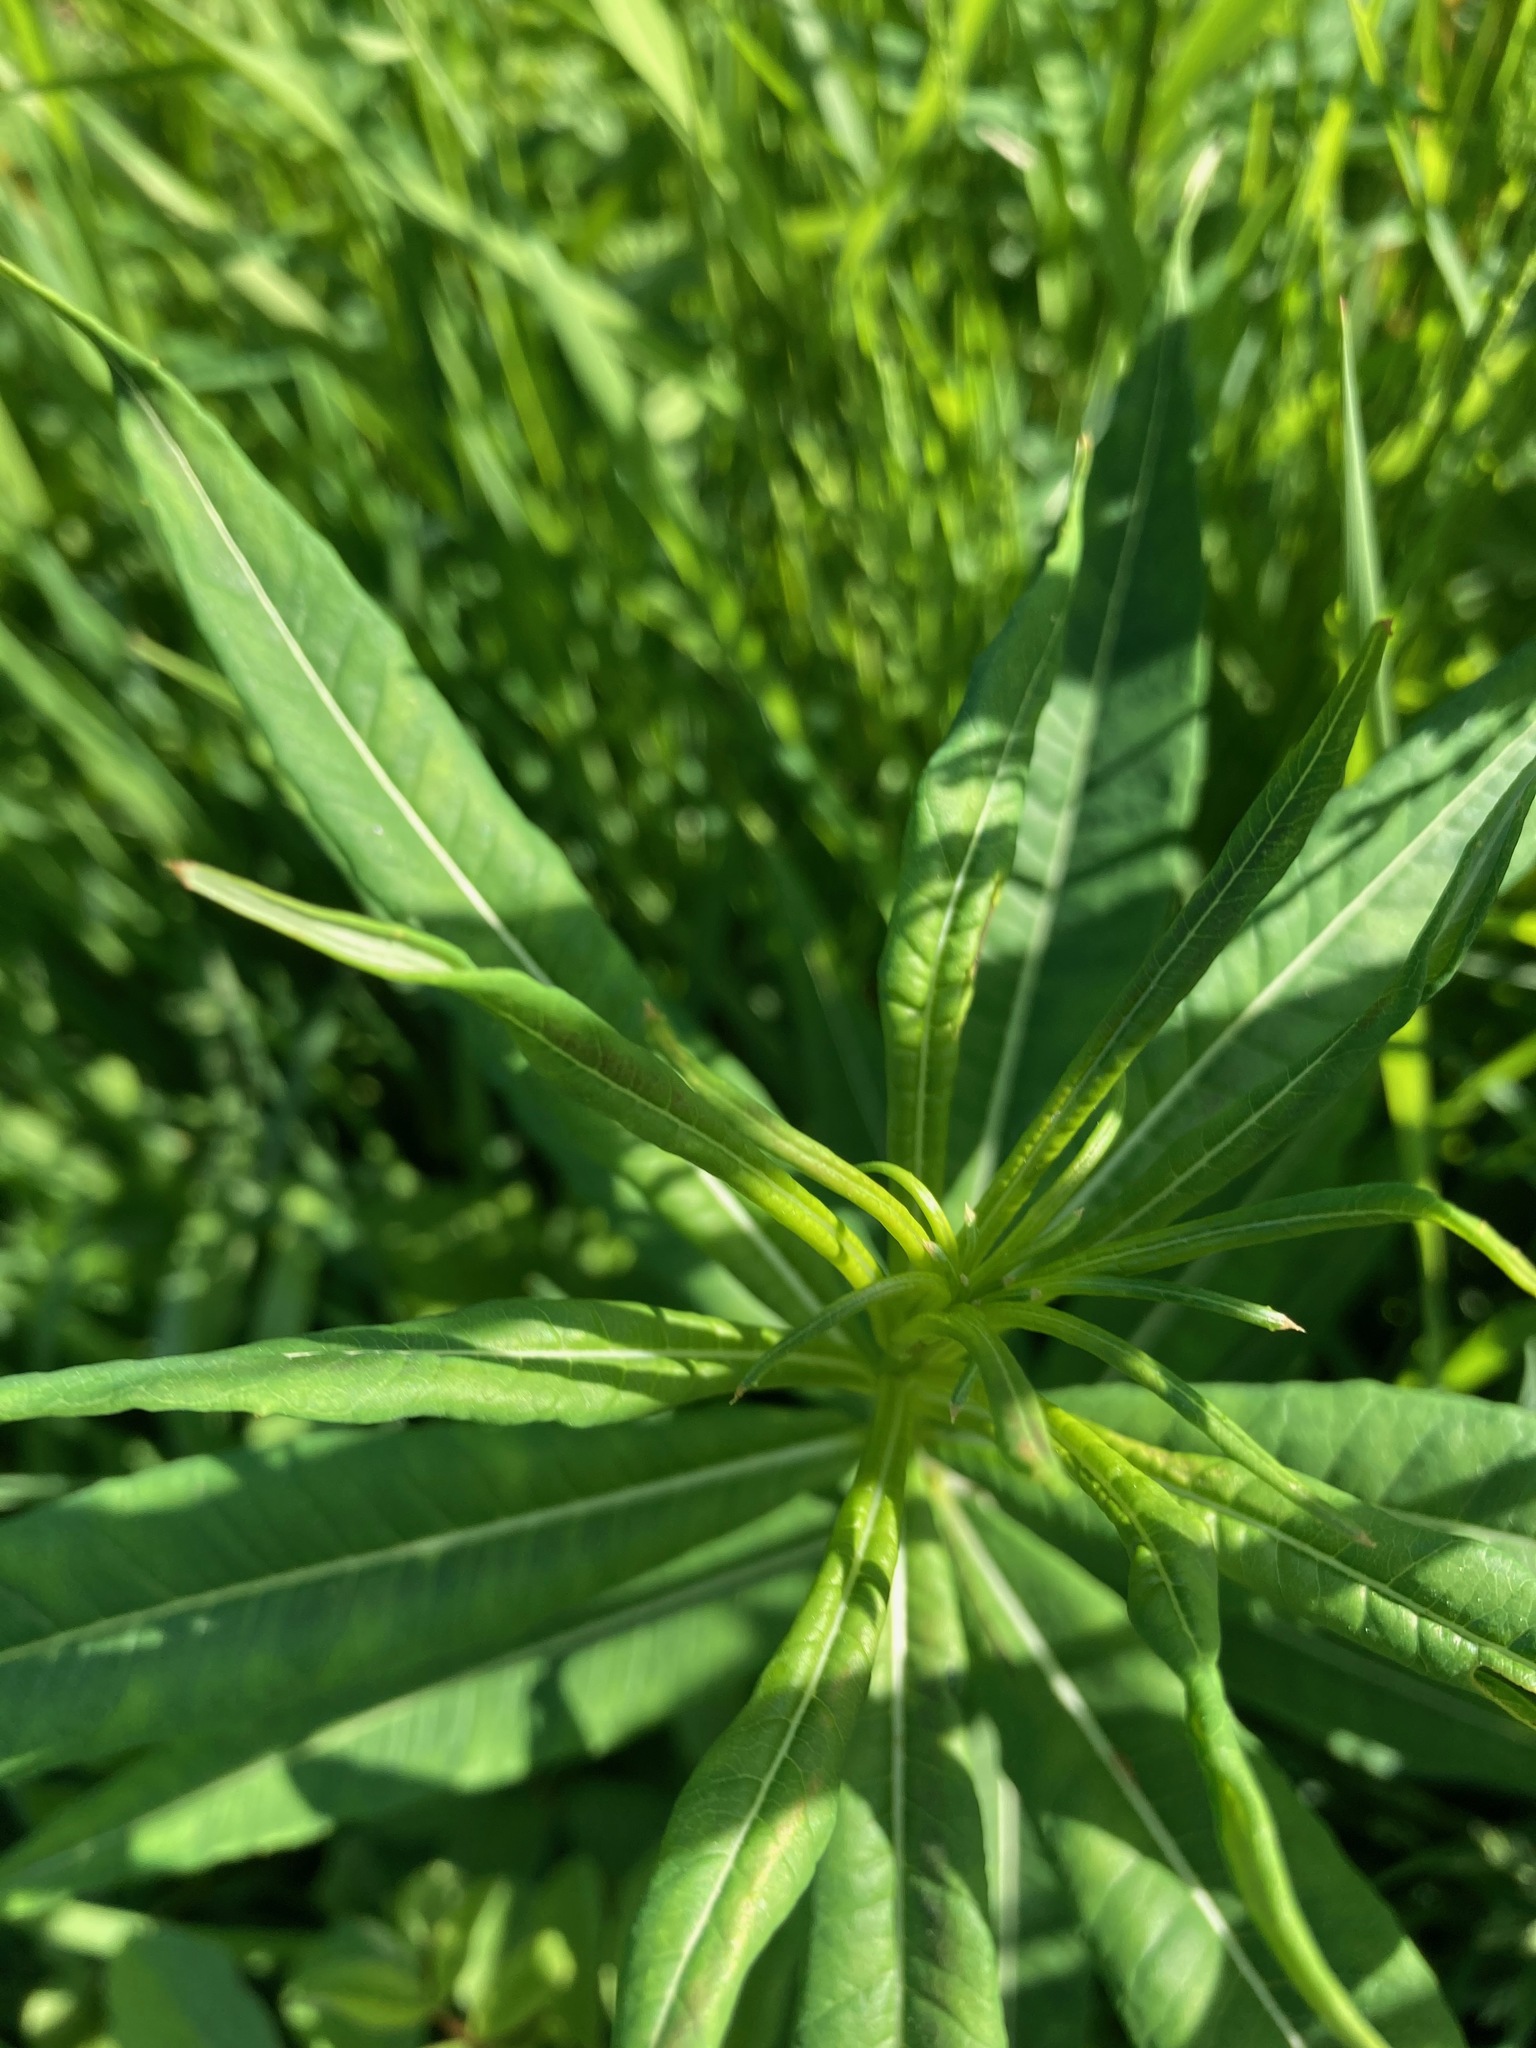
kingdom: Plantae
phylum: Tracheophyta
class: Magnoliopsida
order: Myrtales
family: Onagraceae
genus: Chamaenerion
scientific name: Chamaenerion angustifolium
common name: Fireweed
